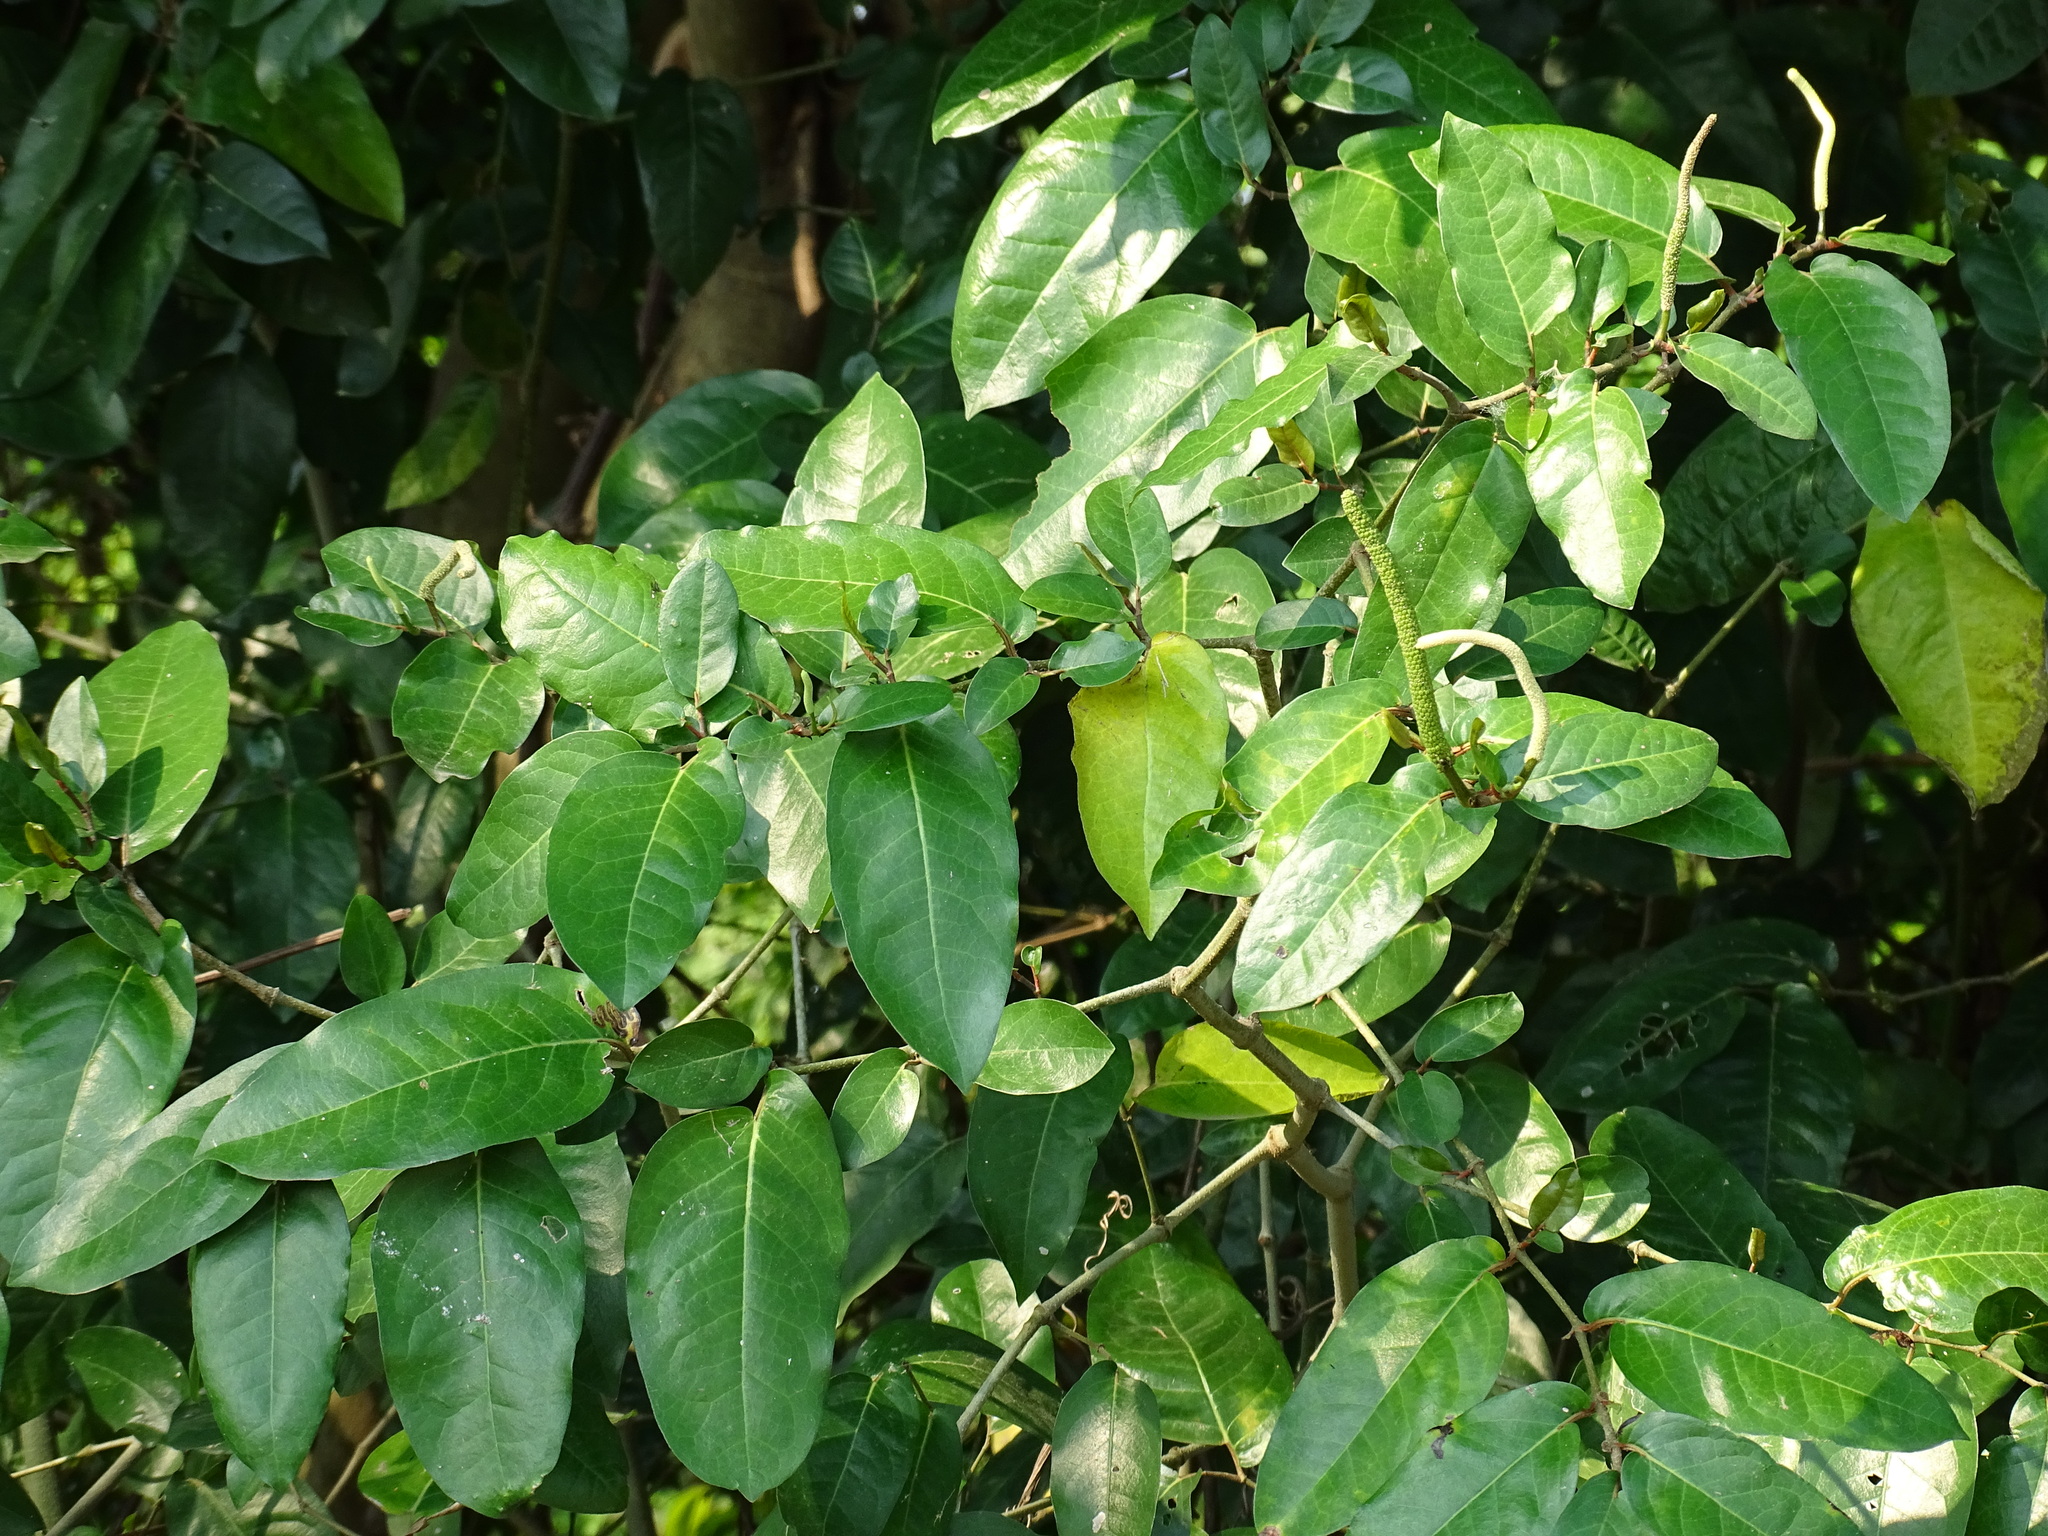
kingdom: Plantae
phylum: Tracheophyta
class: Magnoliopsida
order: Piperales
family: Piperaceae
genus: Piper
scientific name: Piper tuberculatum
